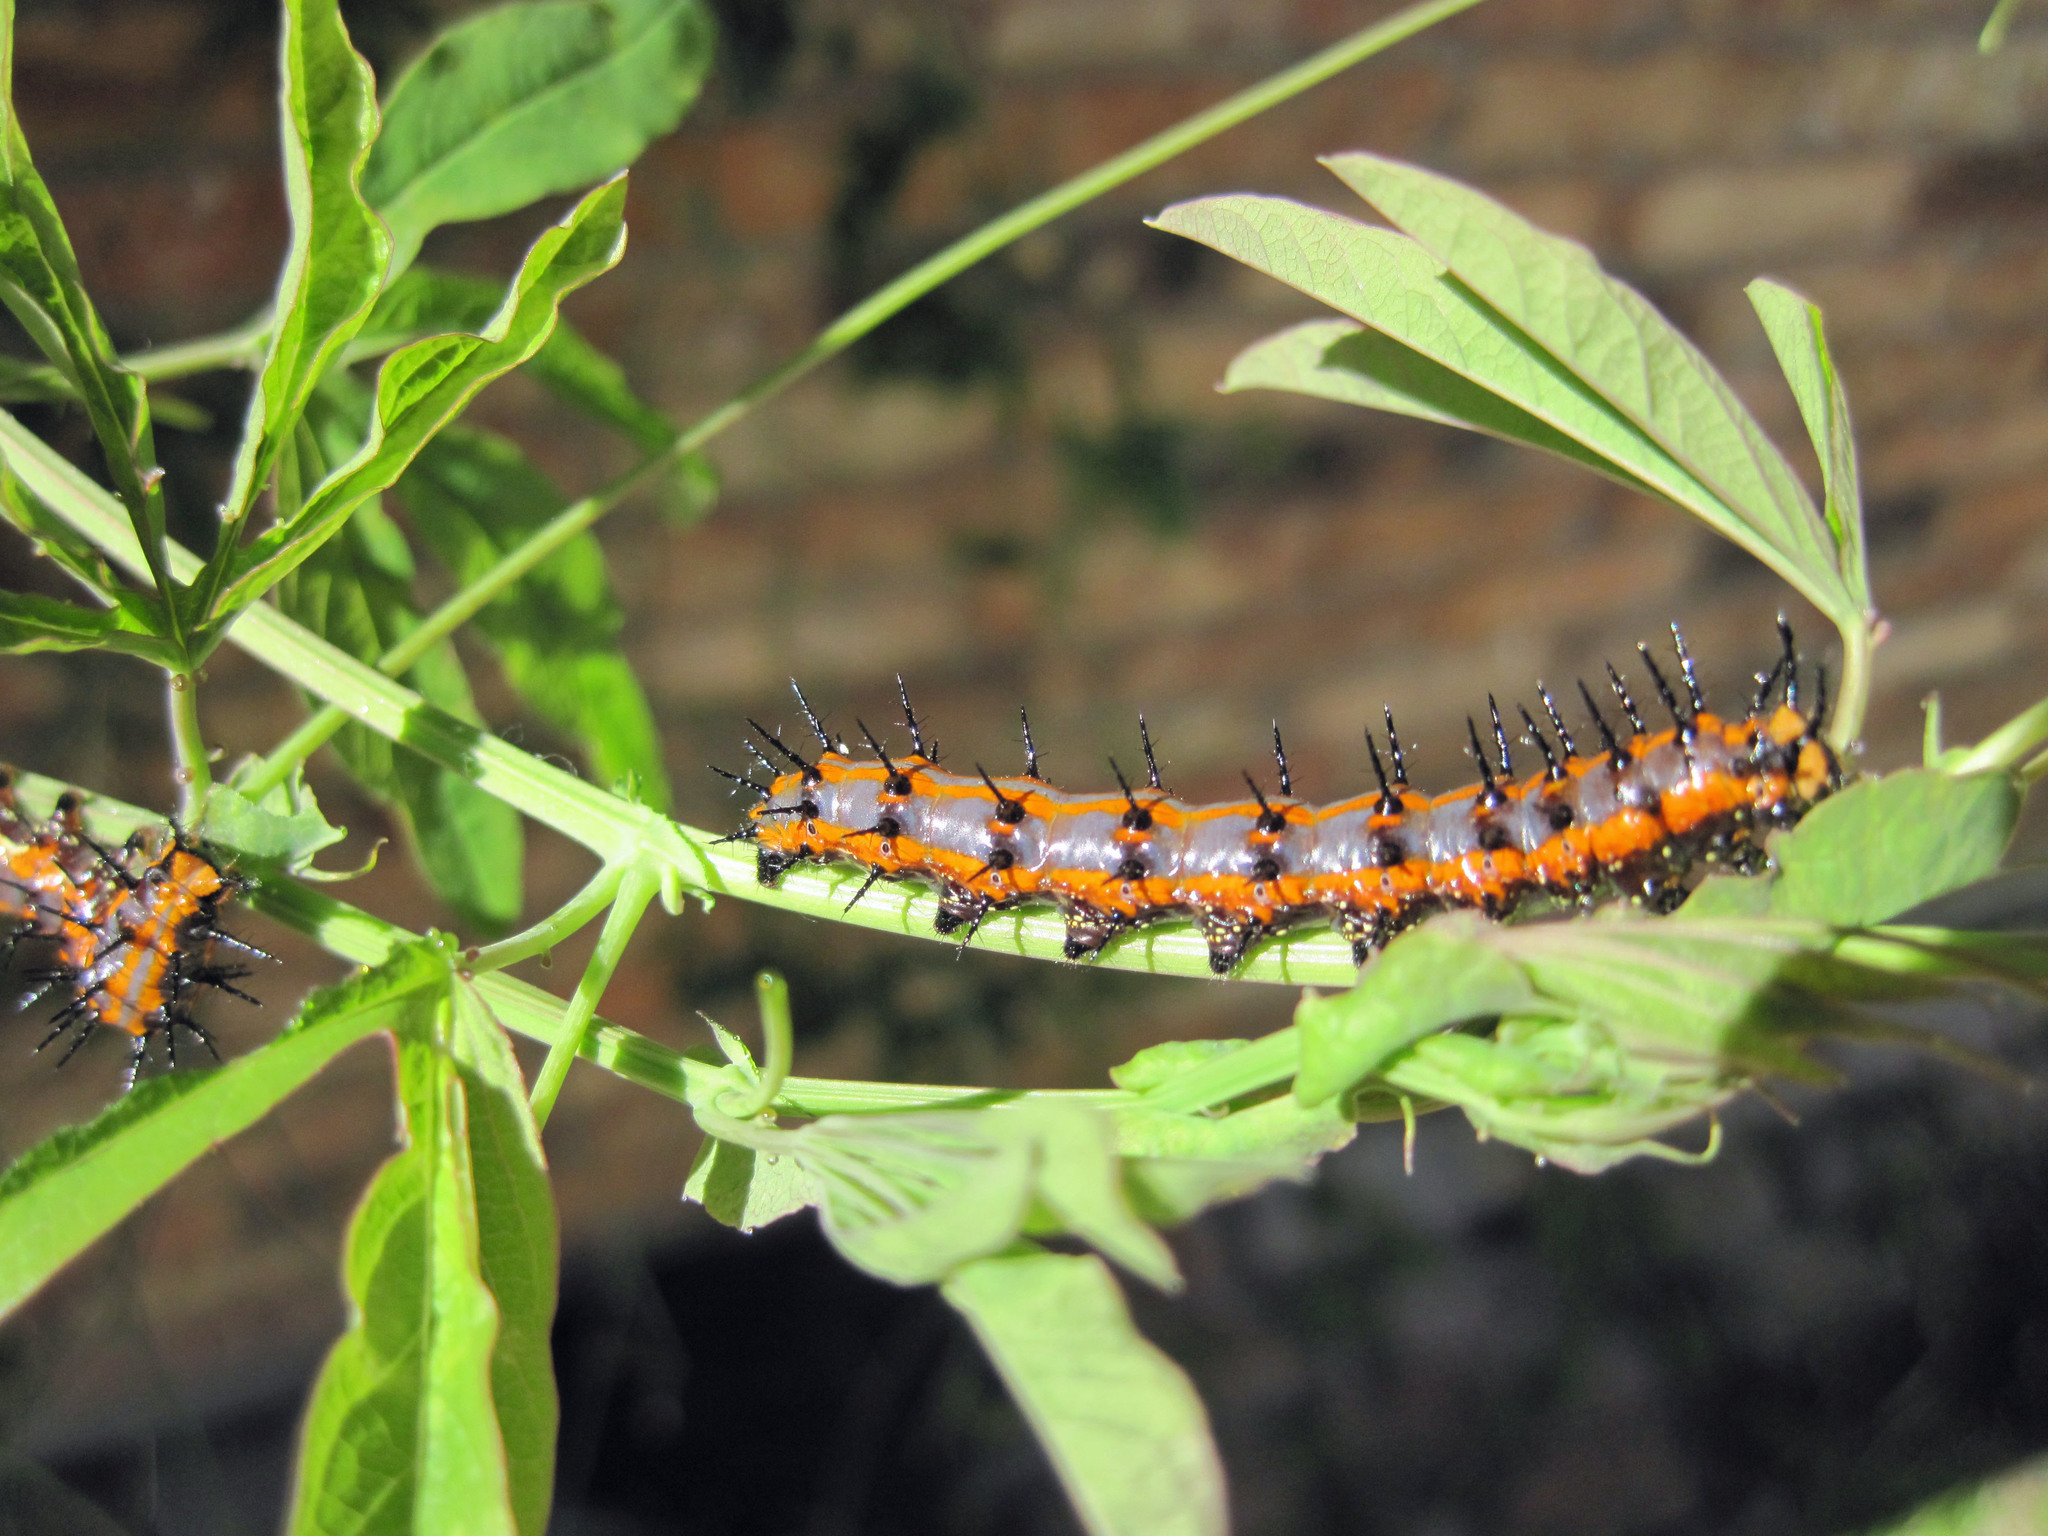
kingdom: Animalia
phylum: Arthropoda
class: Insecta
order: Lepidoptera
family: Nymphalidae
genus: Dione
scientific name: Dione vanillae
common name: Gulf fritillary
